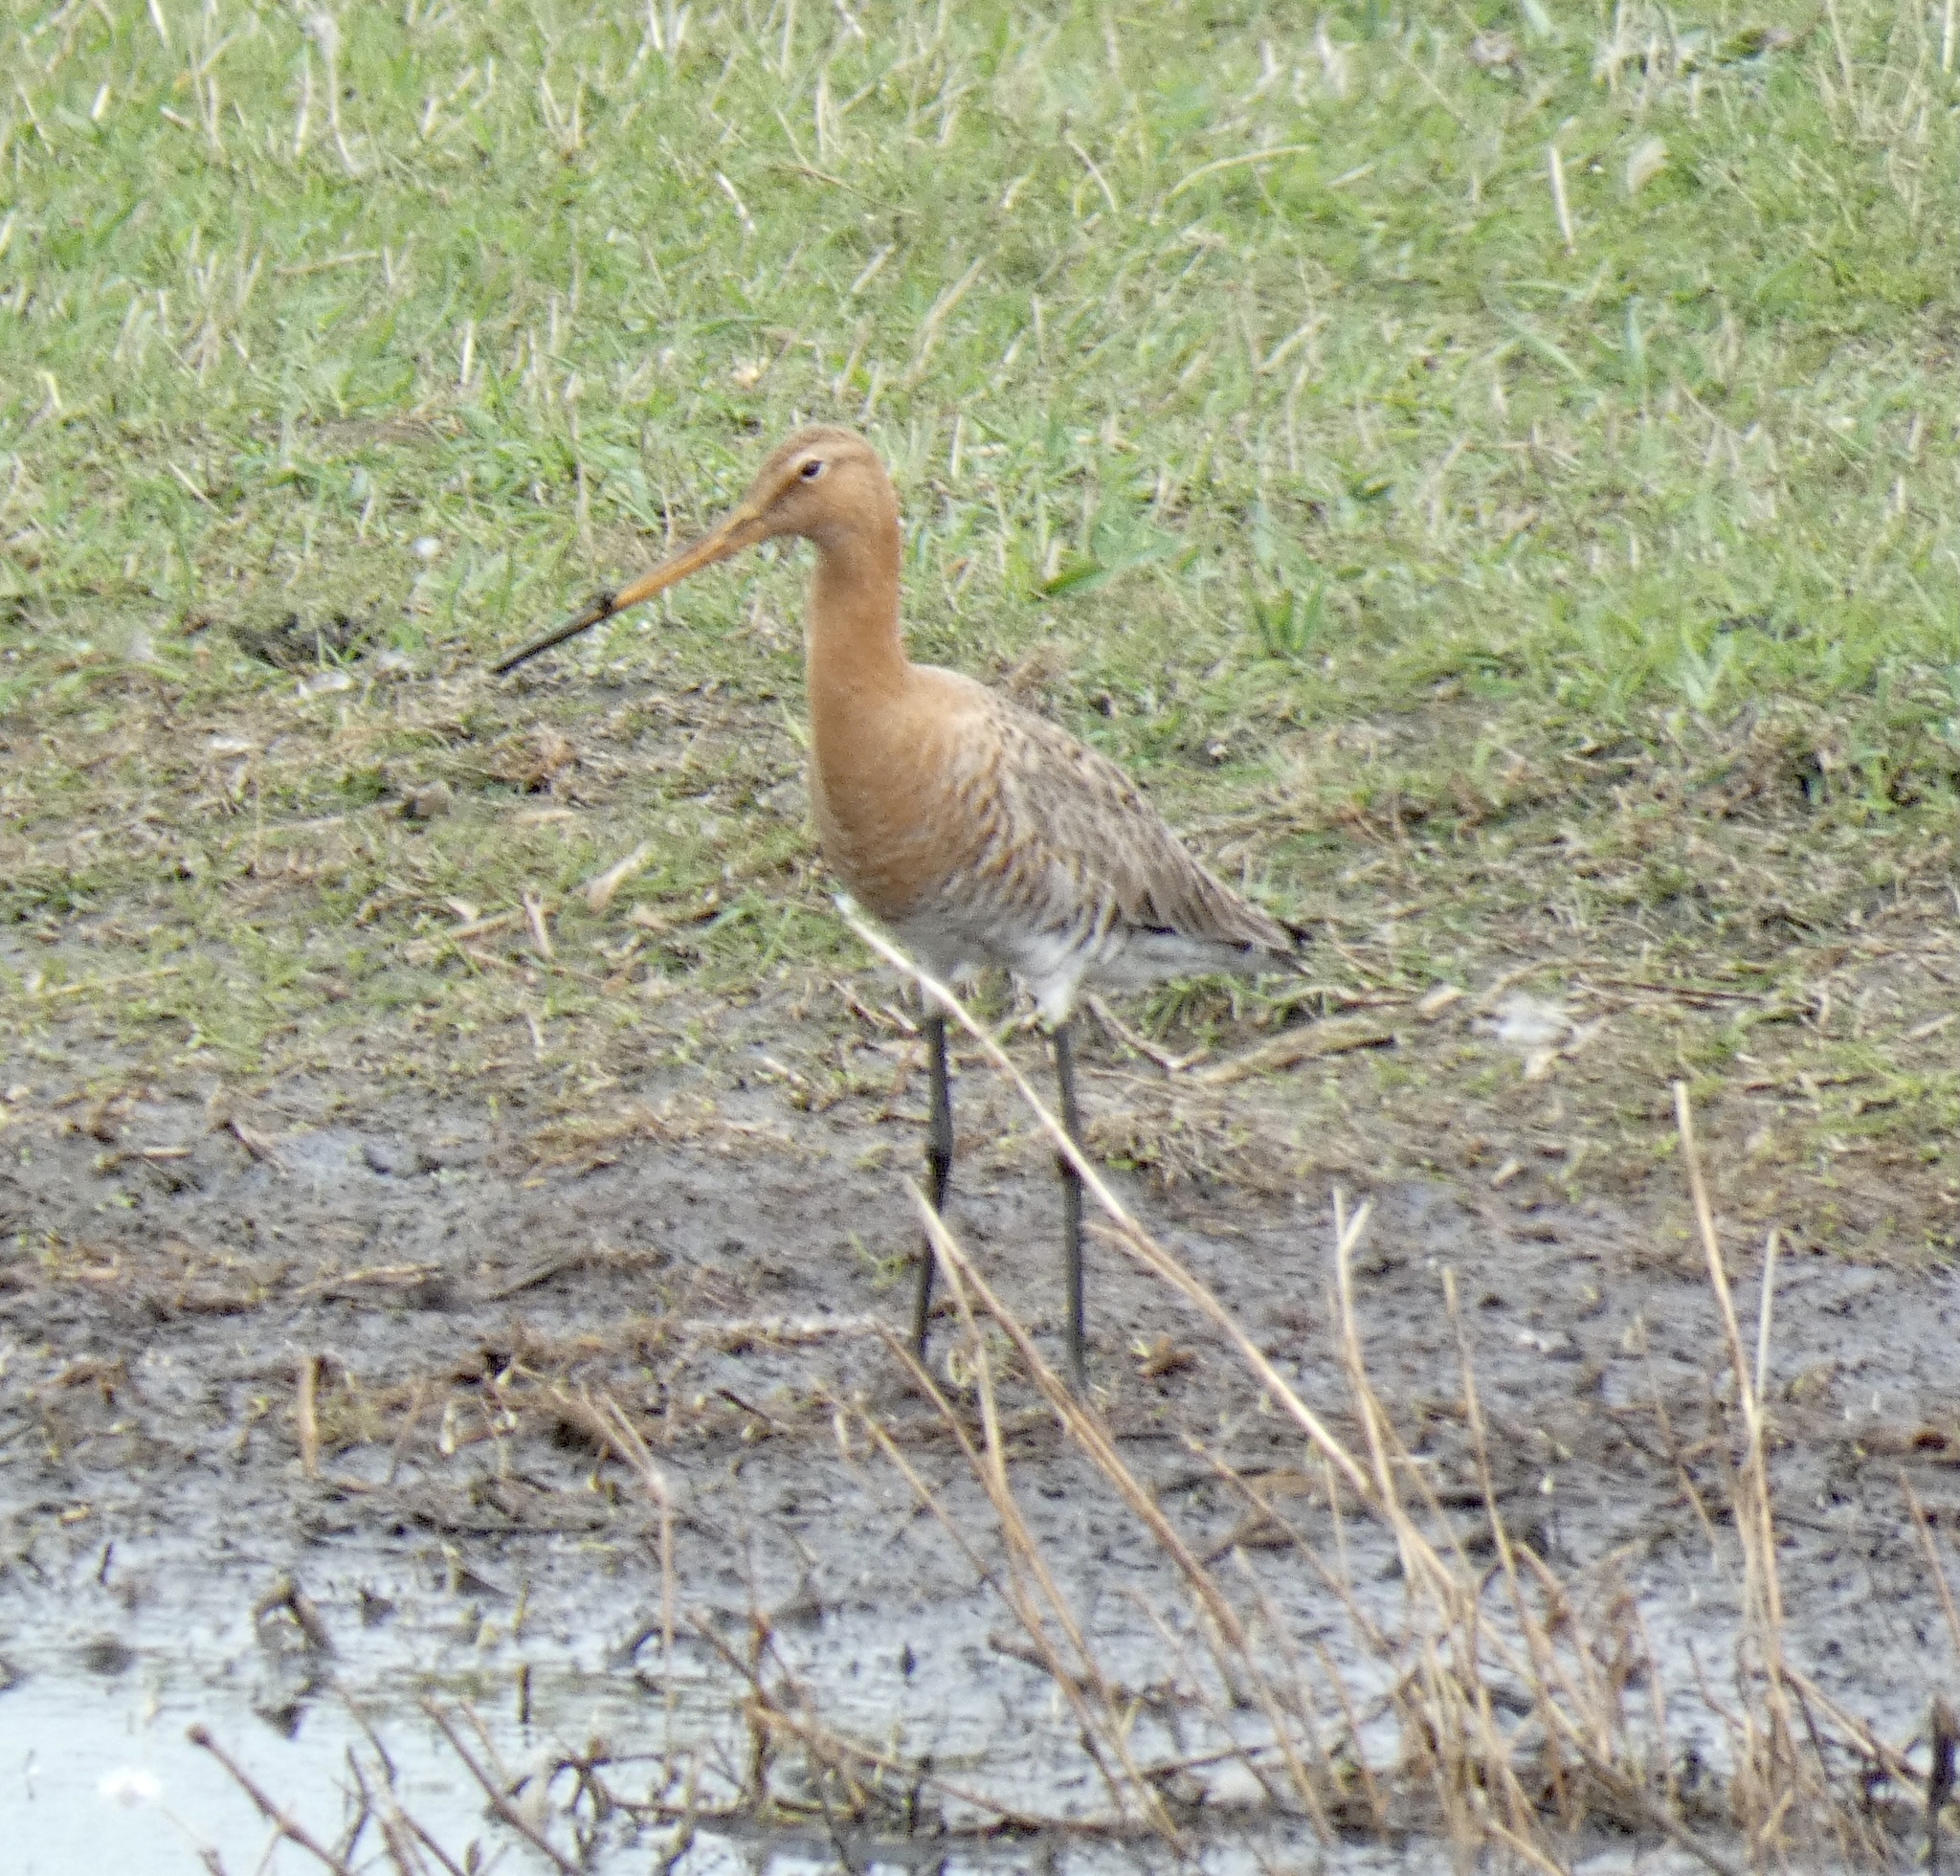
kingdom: Animalia
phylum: Chordata
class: Aves
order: Charadriiformes
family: Scolopacidae
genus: Limosa
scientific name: Limosa limosa
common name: Black-tailed godwit
